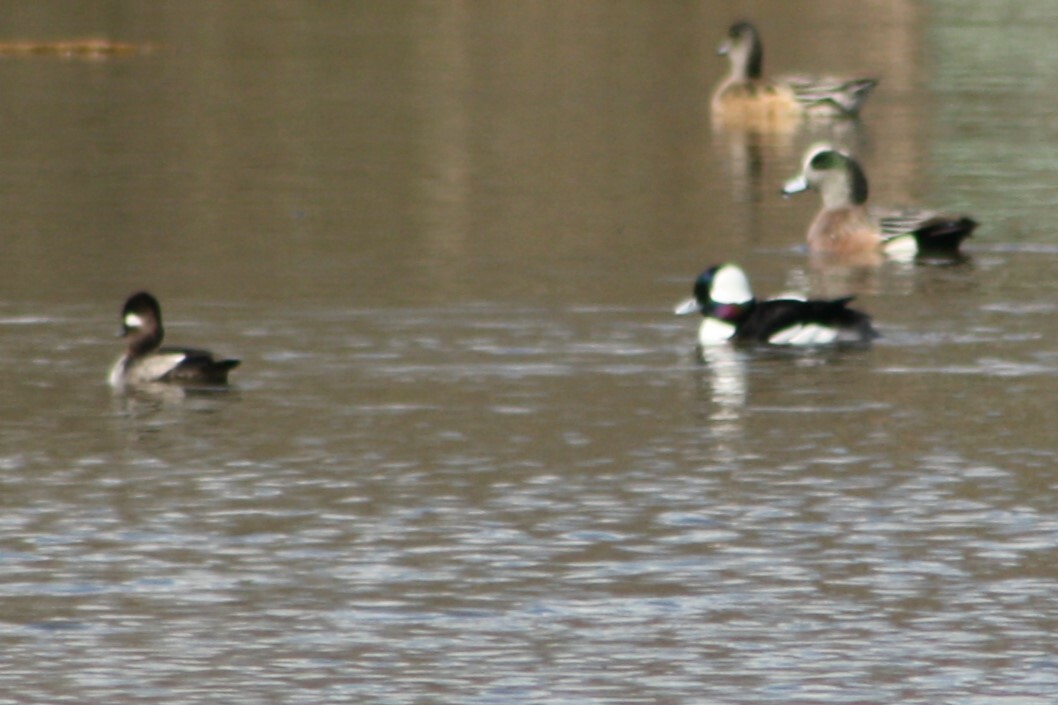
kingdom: Animalia
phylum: Chordata
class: Aves
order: Anseriformes
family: Anatidae
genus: Bucephala
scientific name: Bucephala albeola
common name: Bufflehead
